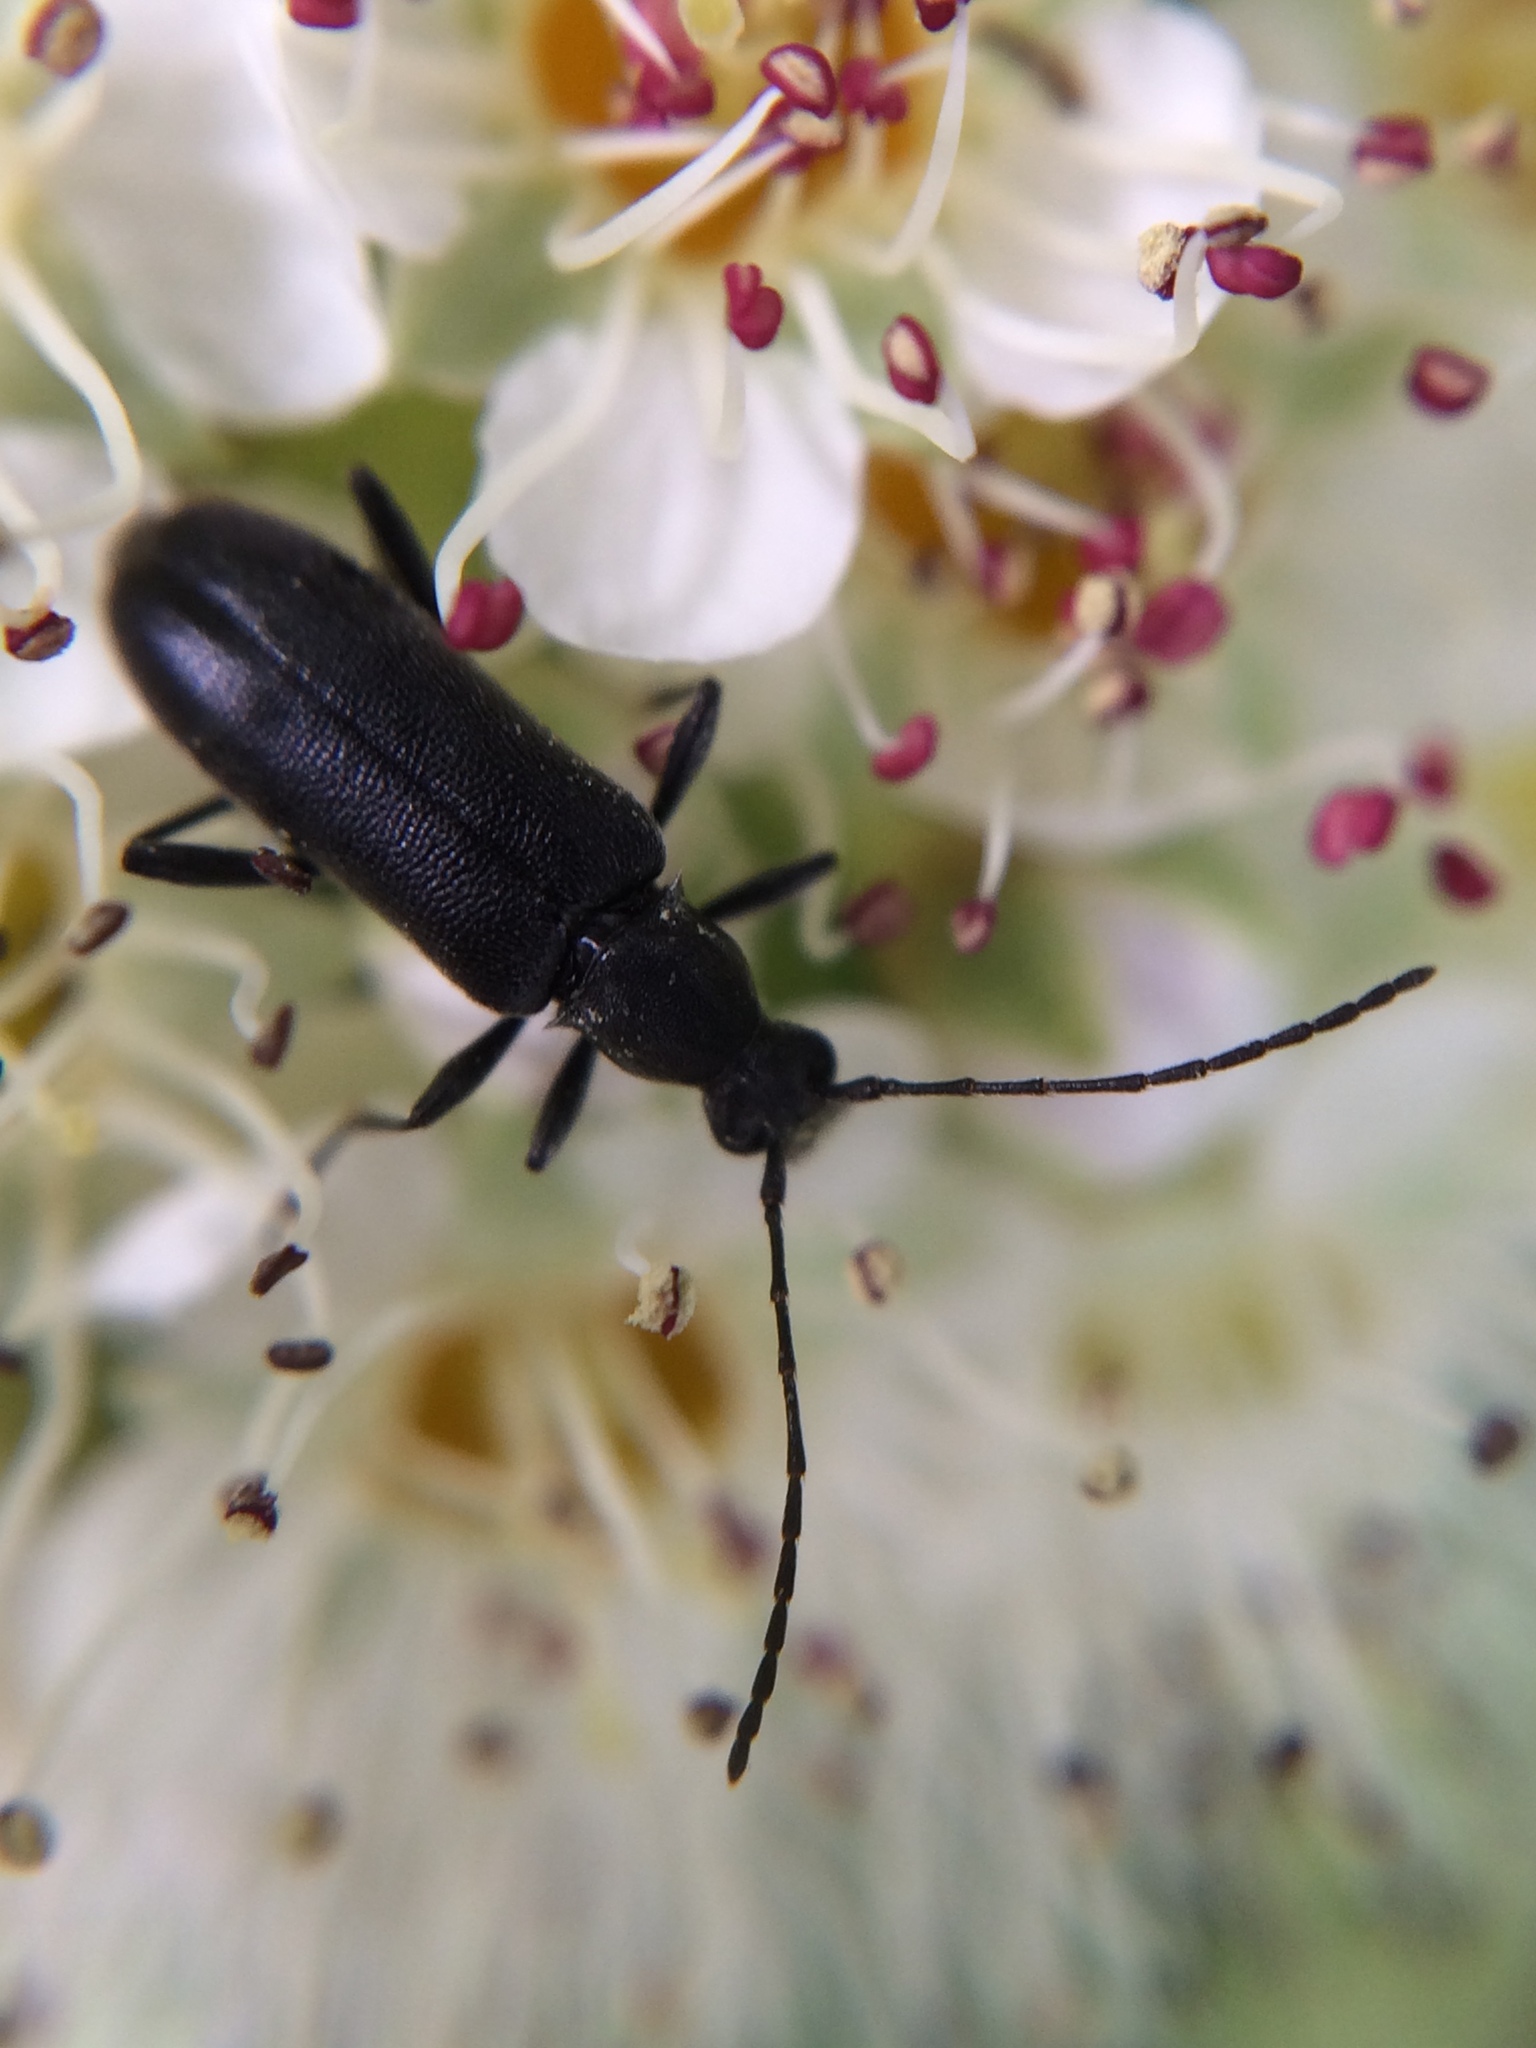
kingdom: Animalia
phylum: Arthropoda
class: Insecta
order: Coleoptera
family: Cerambycidae
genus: Grammoptera
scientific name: Grammoptera subargentata
